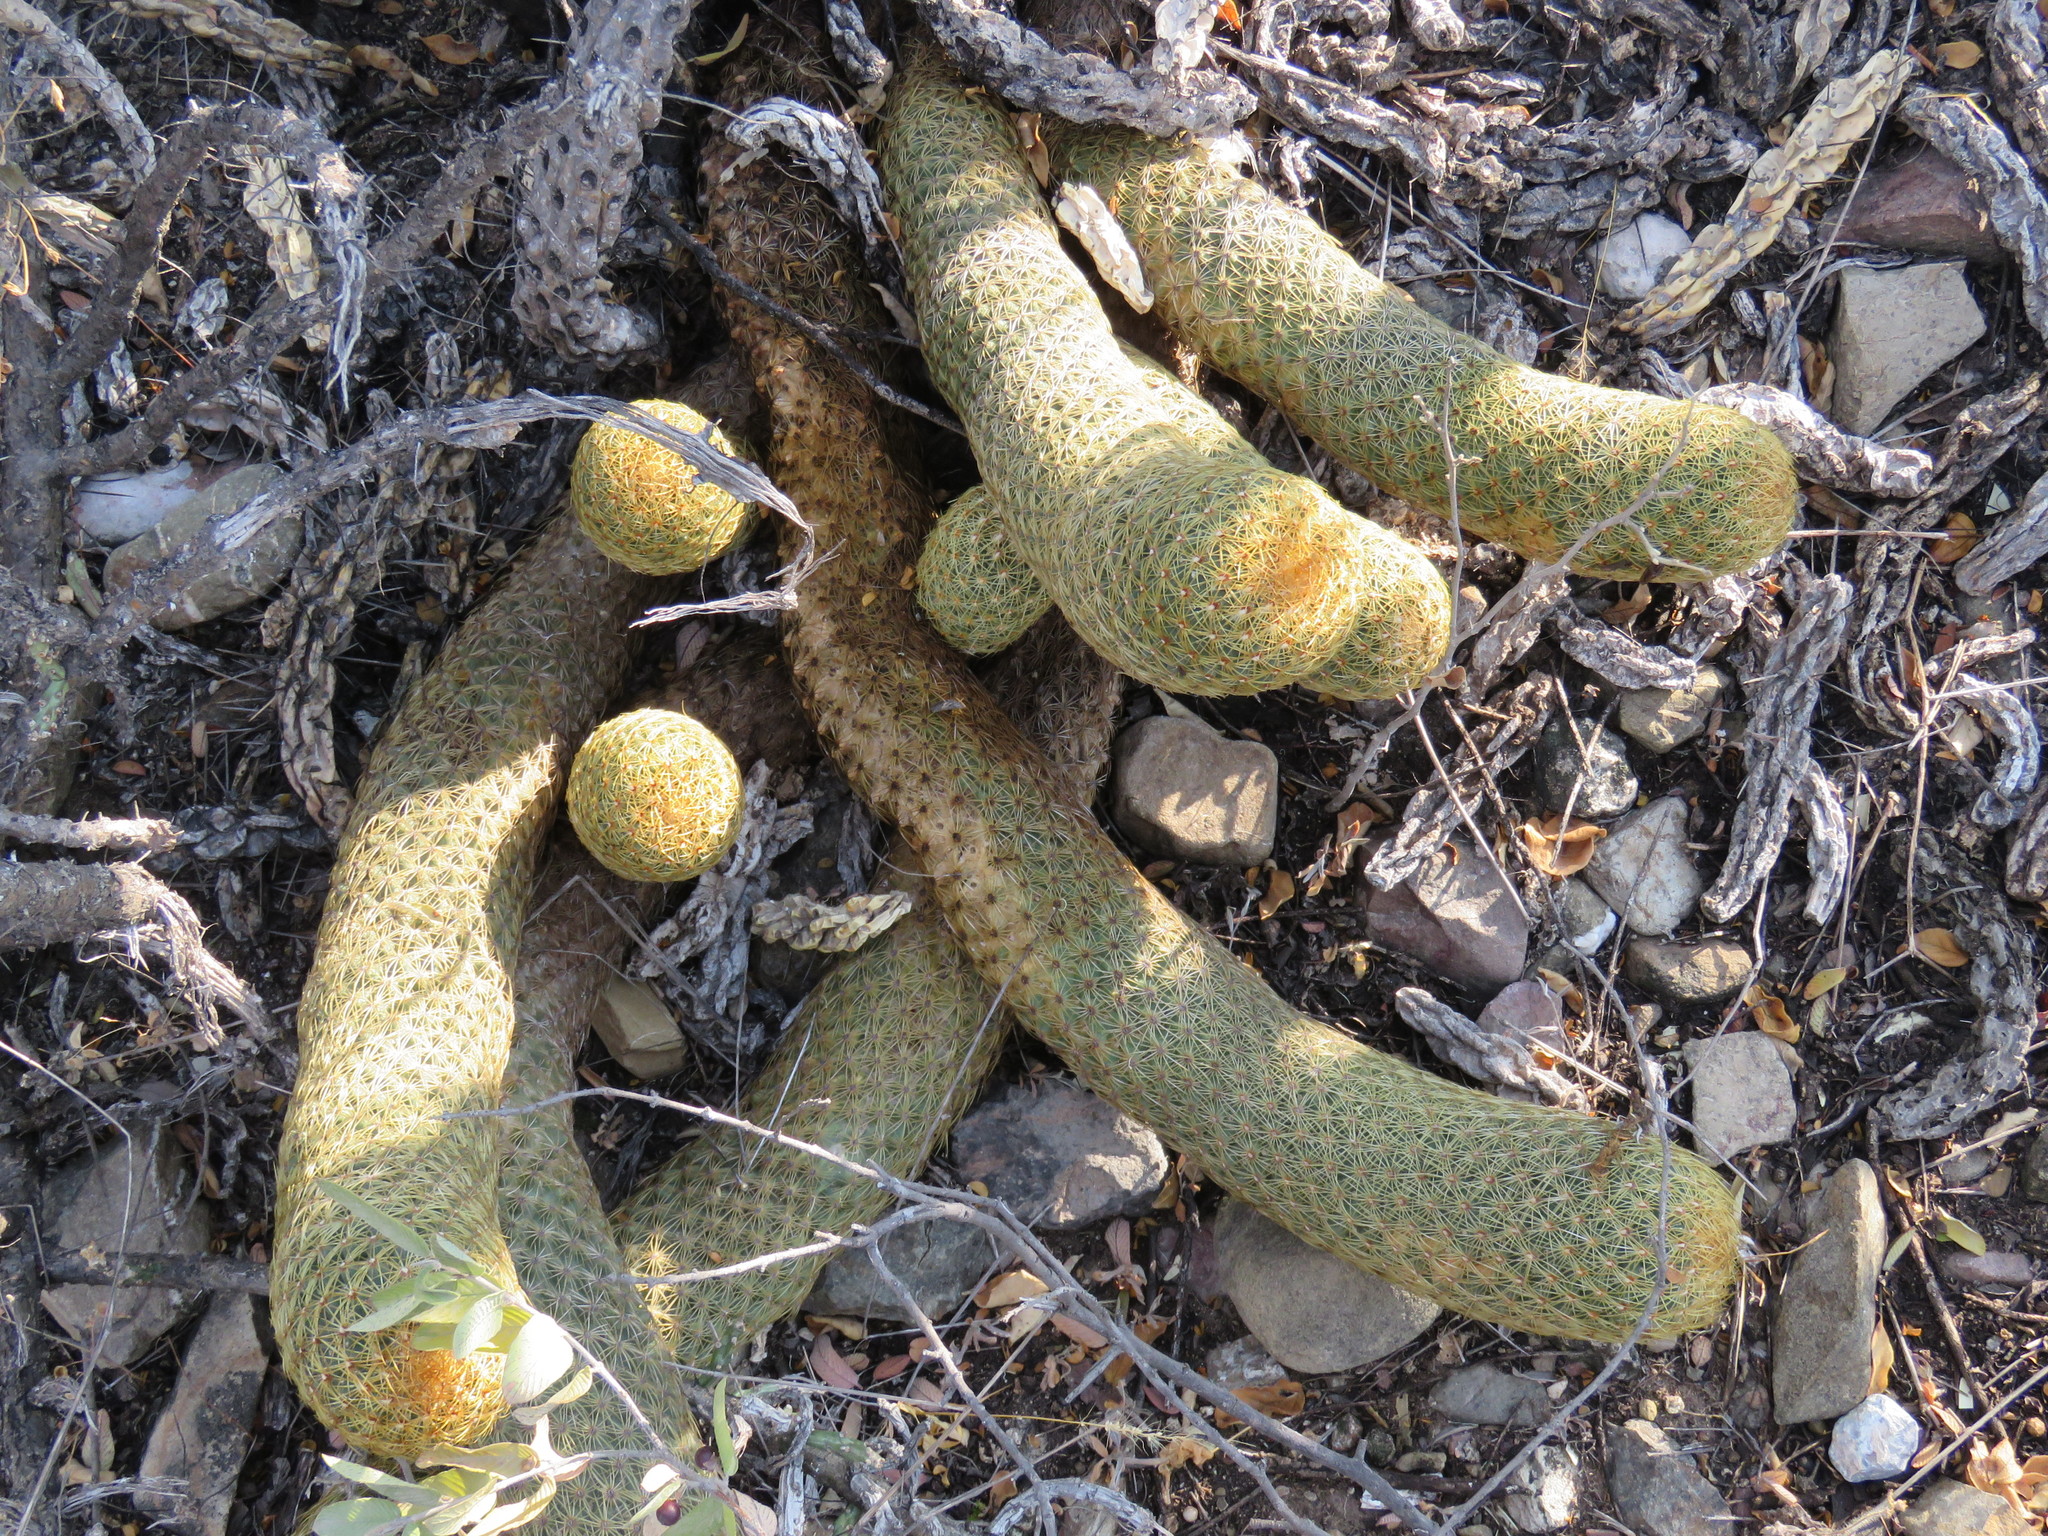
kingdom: Plantae
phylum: Tracheophyta
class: Magnoliopsida
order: Caryophyllales
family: Cactaceae
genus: Coryphantha
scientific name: Coryphantha erecta
